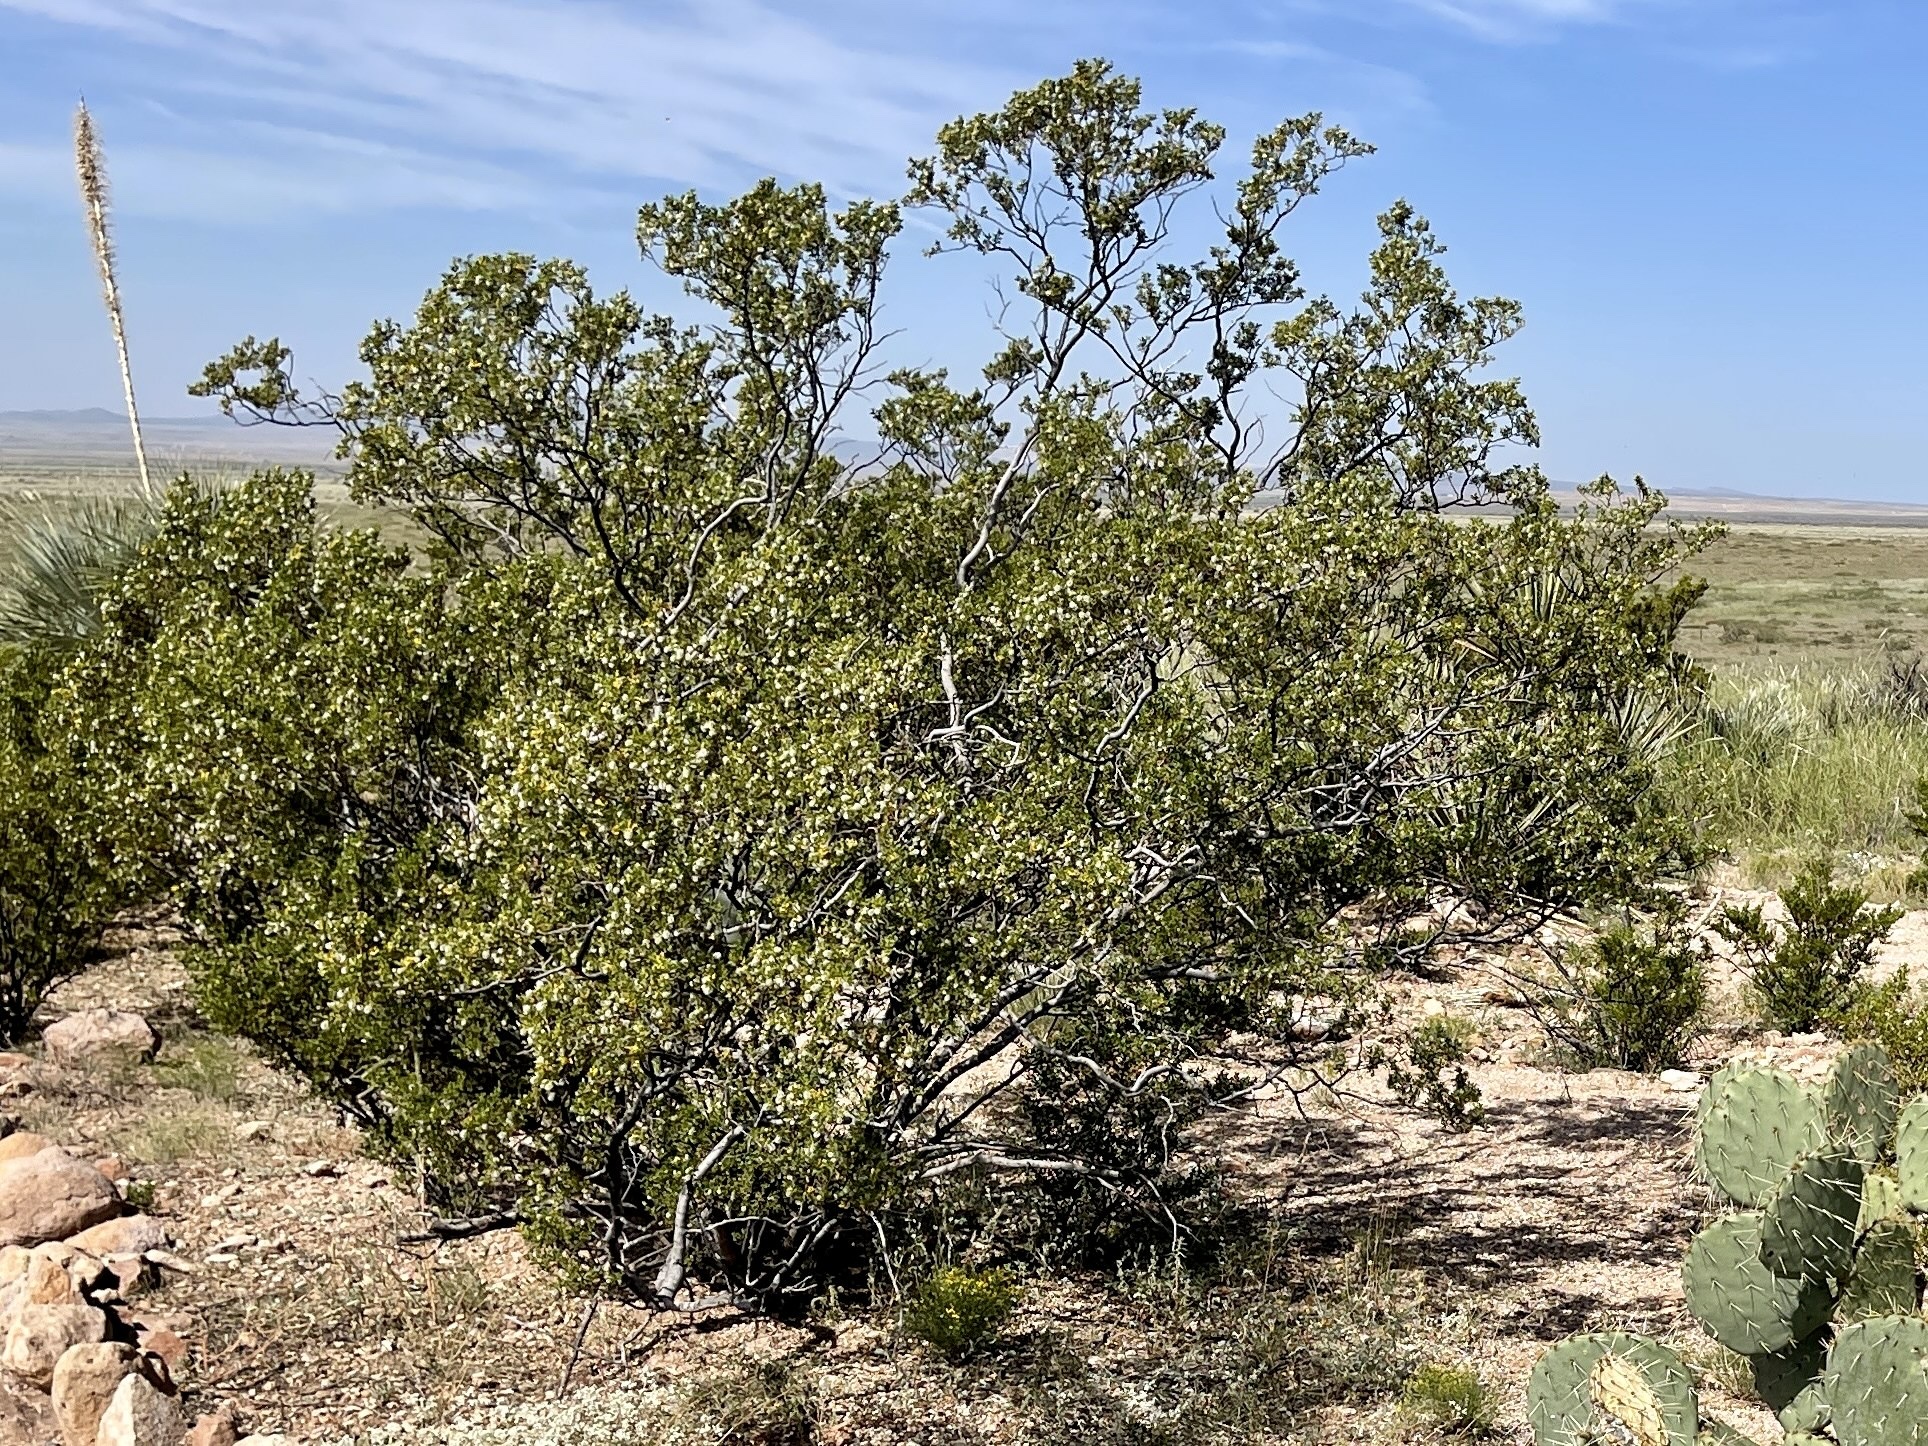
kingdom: Plantae
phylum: Tracheophyta
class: Magnoliopsida
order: Zygophyllales
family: Zygophyllaceae
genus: Larrea
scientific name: Larrea tridentata
